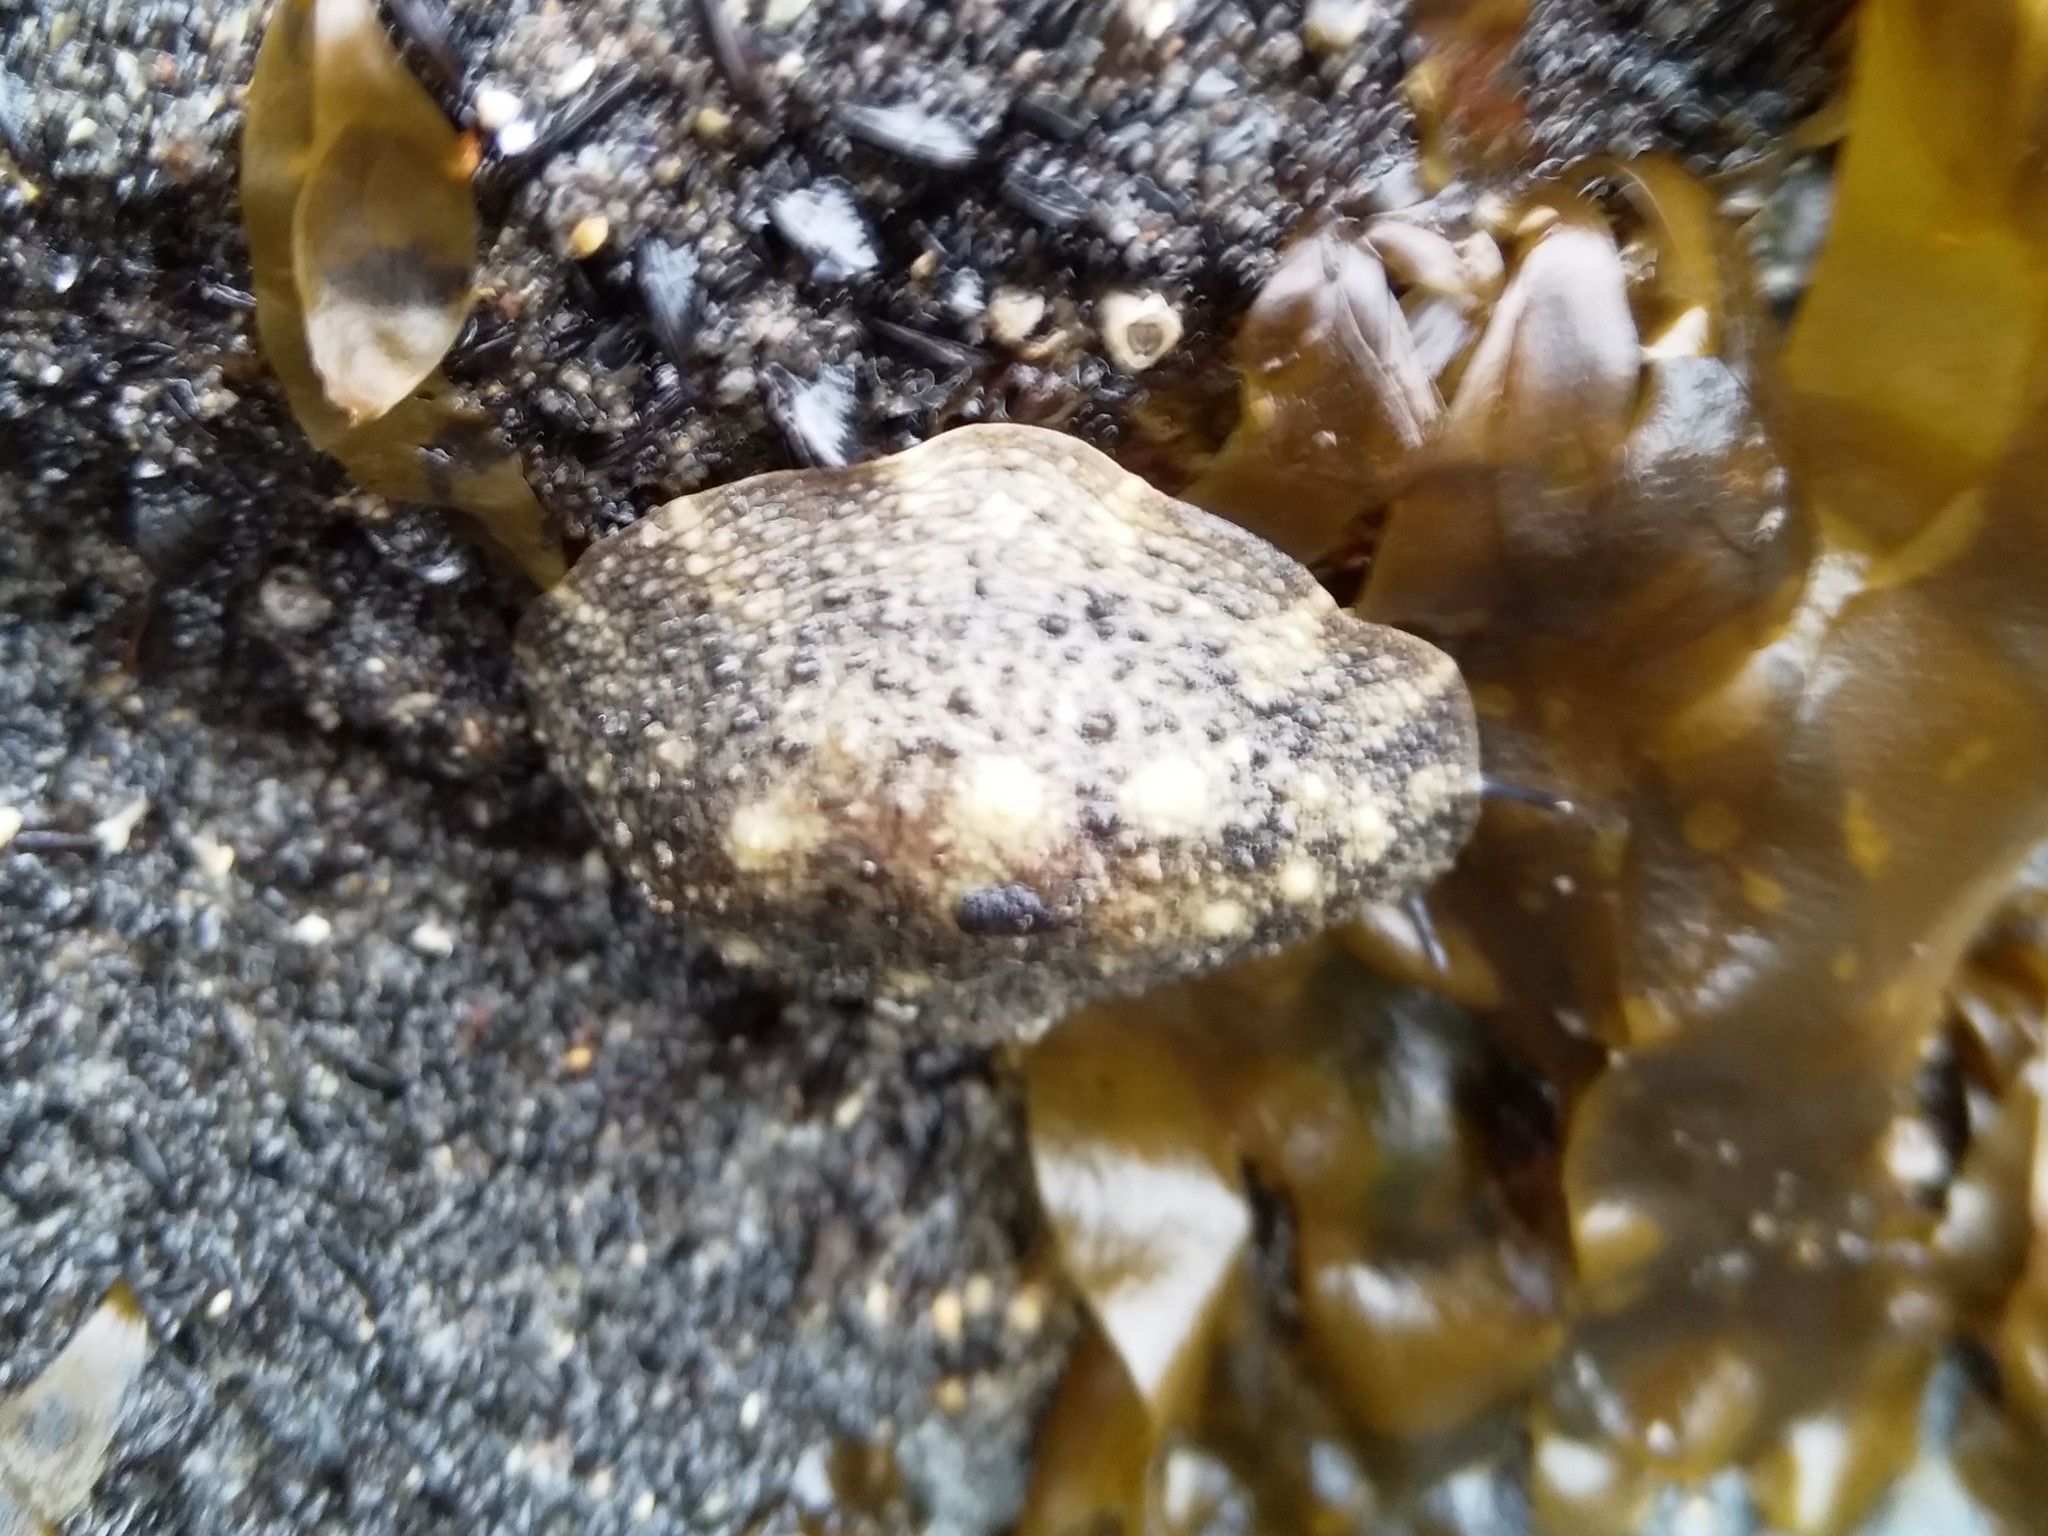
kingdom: Animalia
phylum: Mollusca
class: Gastropoda
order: Systellommatophora
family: Onchidiidae
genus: Onchidella
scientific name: Onchidella nigricans
